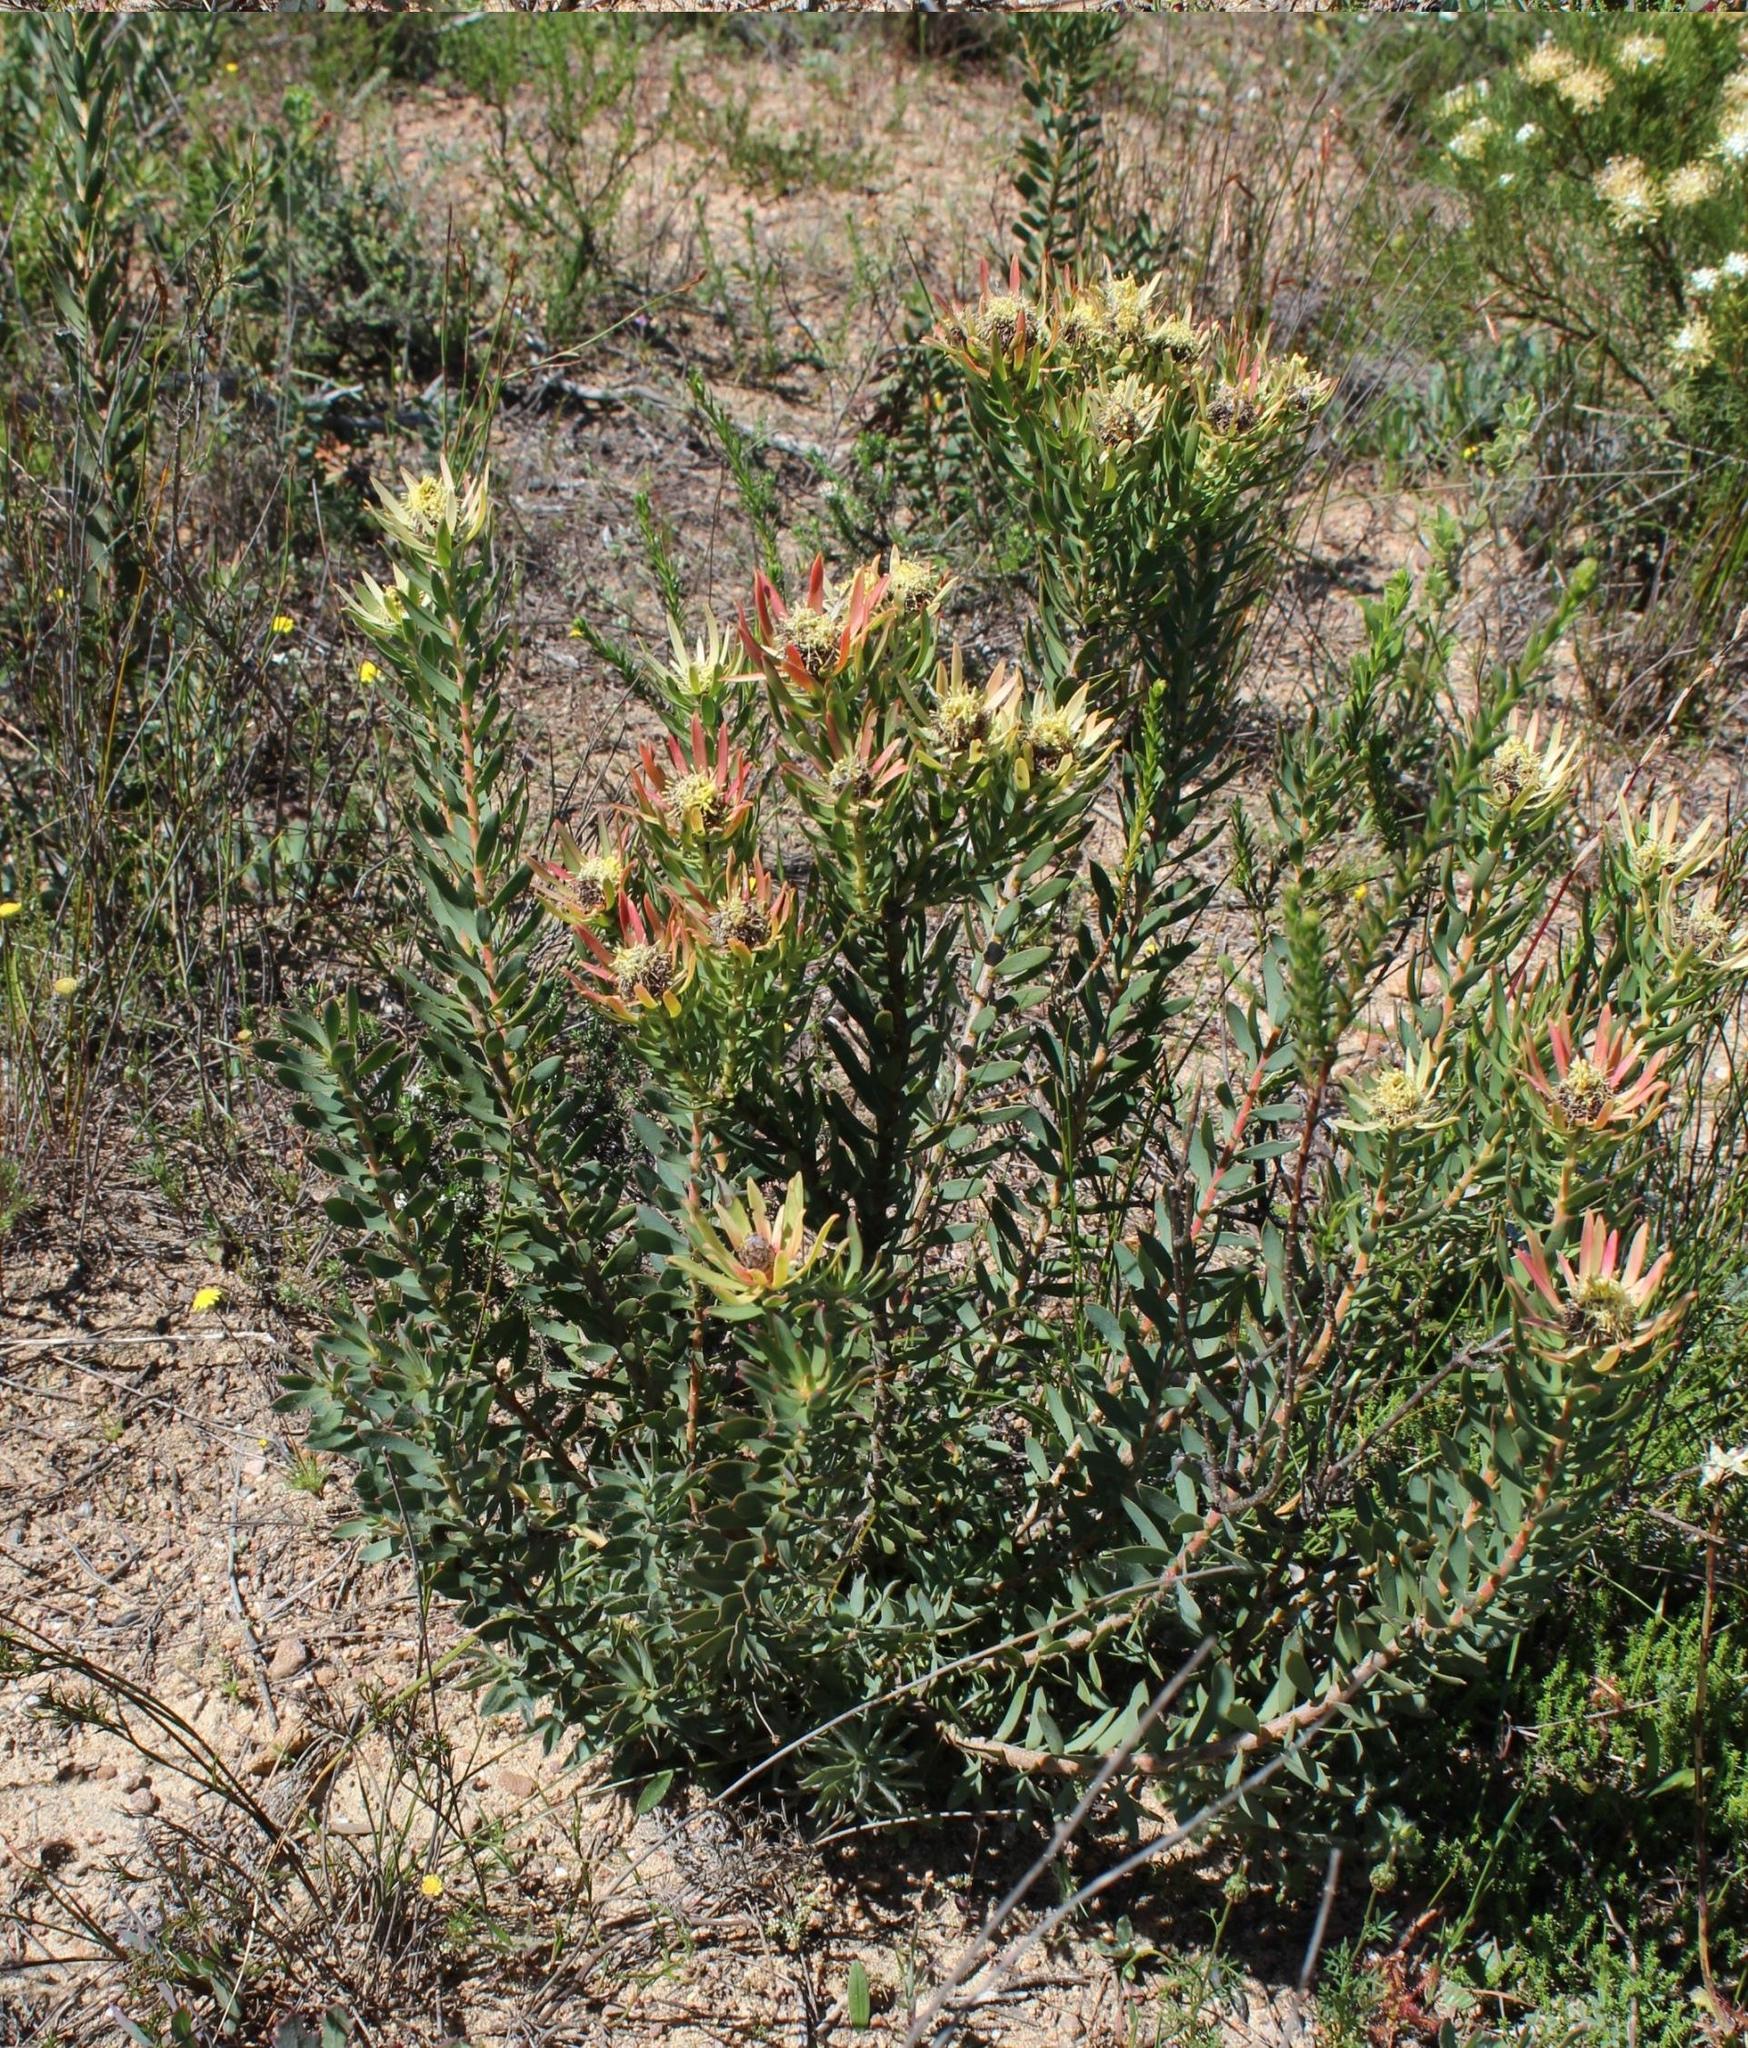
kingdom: Plantae
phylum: Tracheophyta
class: Magnoliopsida
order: Proteales
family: Proteaceae
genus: Leucadendron
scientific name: Leucadendron lanigerum
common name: Shale conebush
